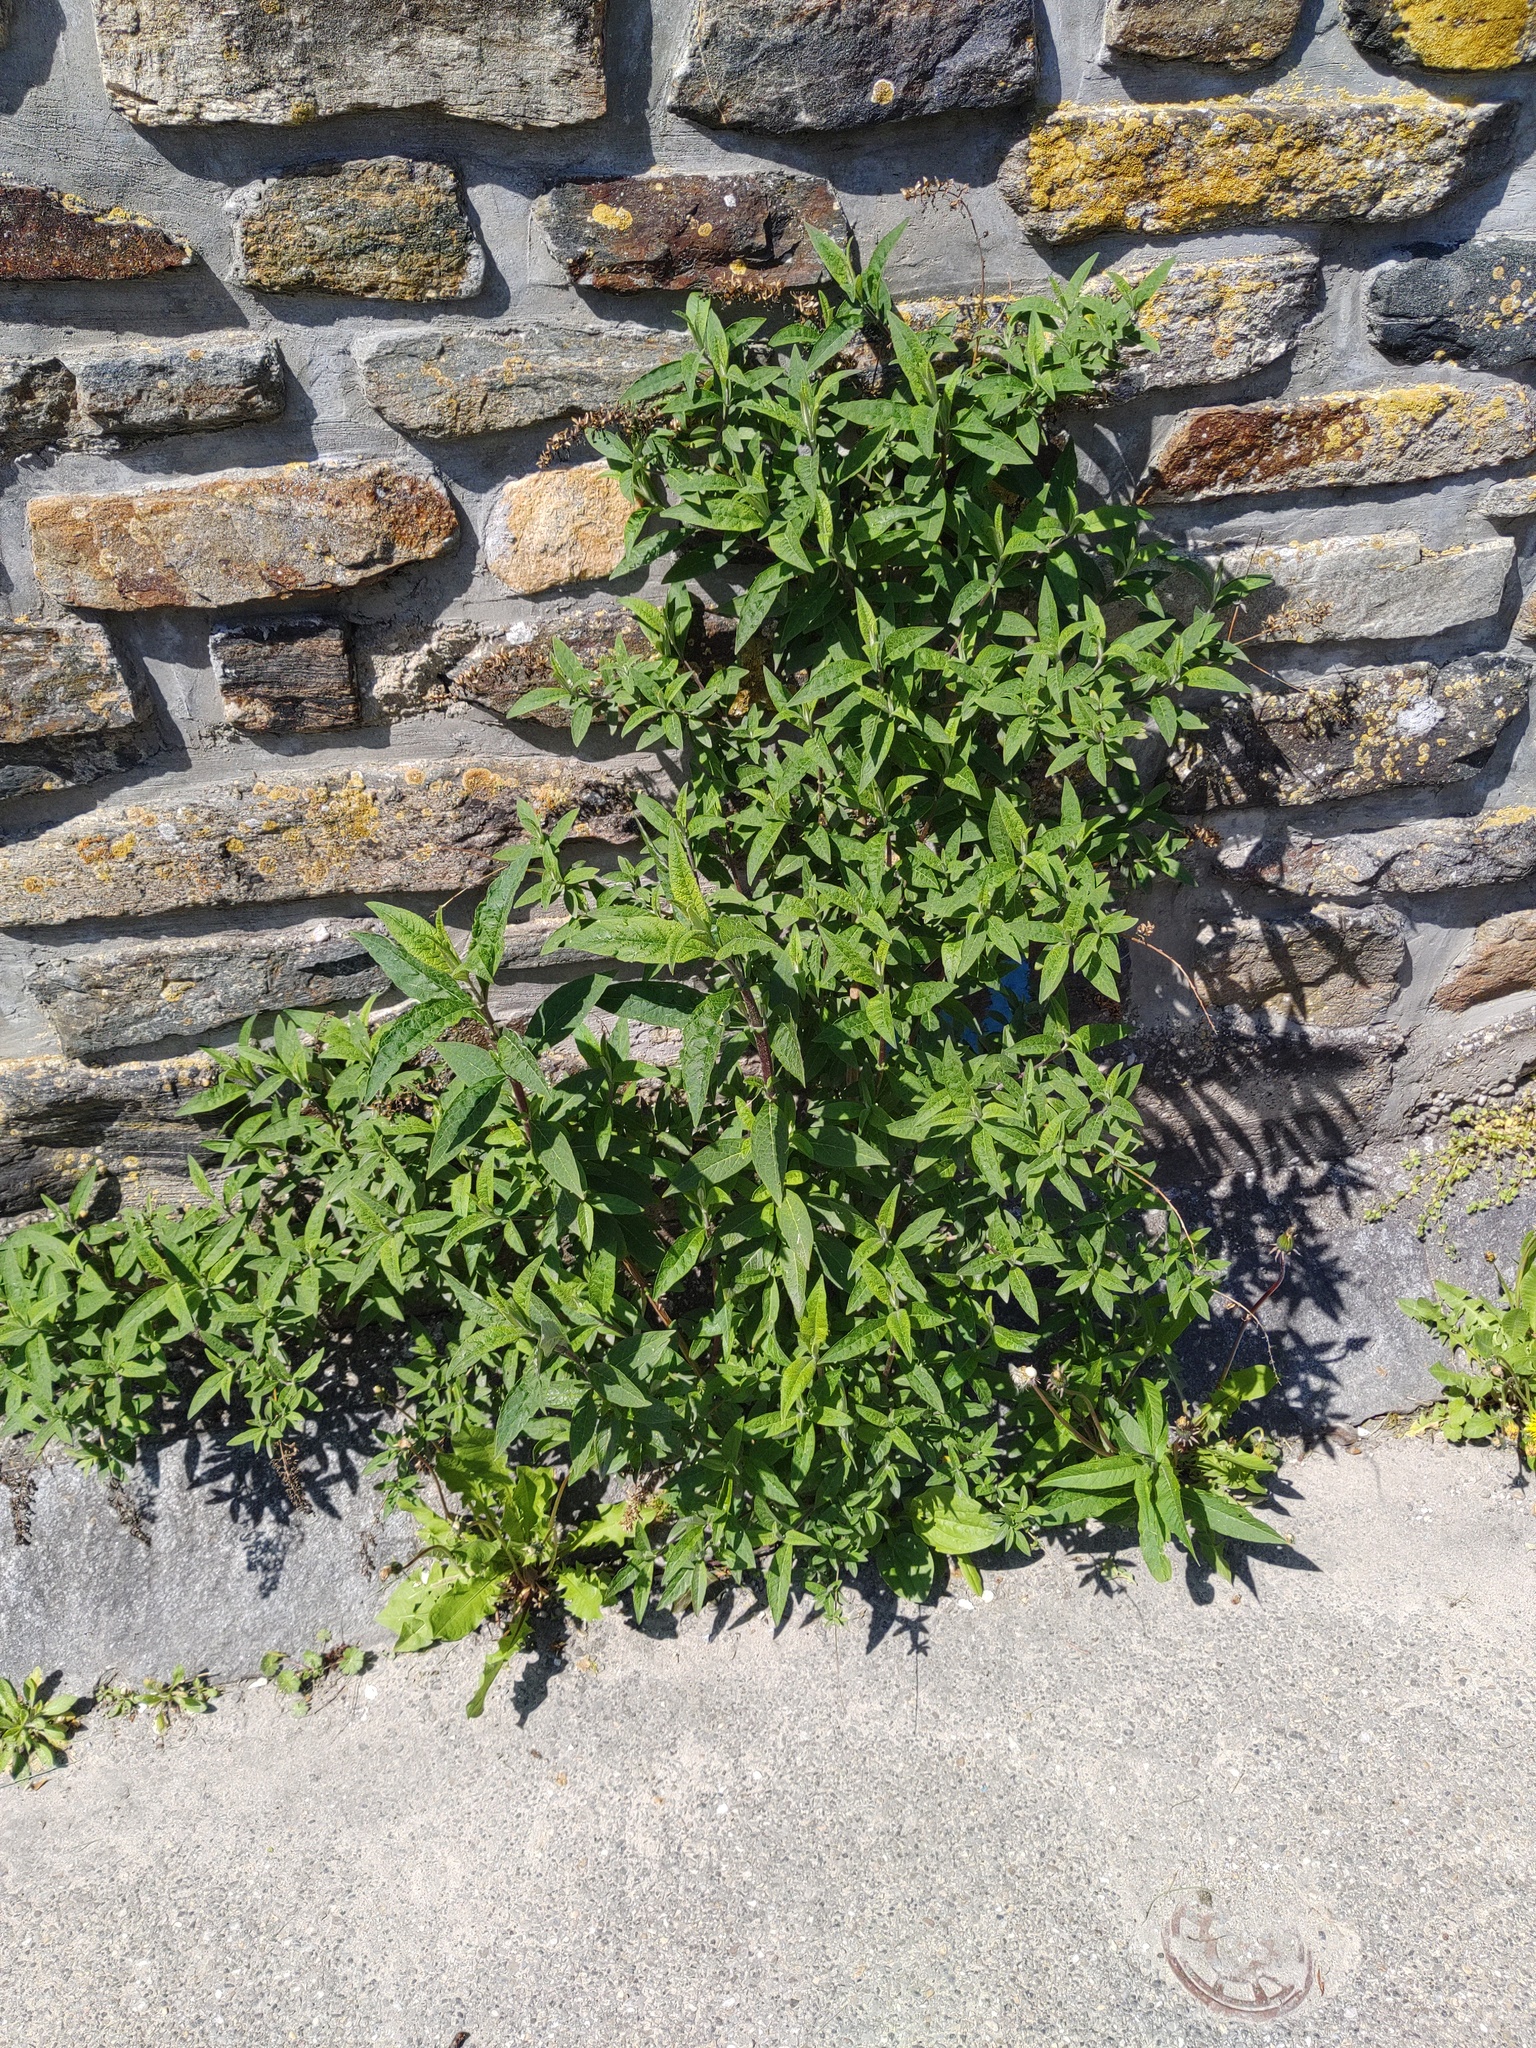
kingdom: Plantae
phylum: Tracheophyta
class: Magnoliopsida
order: Lamiales
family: Scrophulariaceae
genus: Buddleja
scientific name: Buddleja davidii
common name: Butterfly-bush
